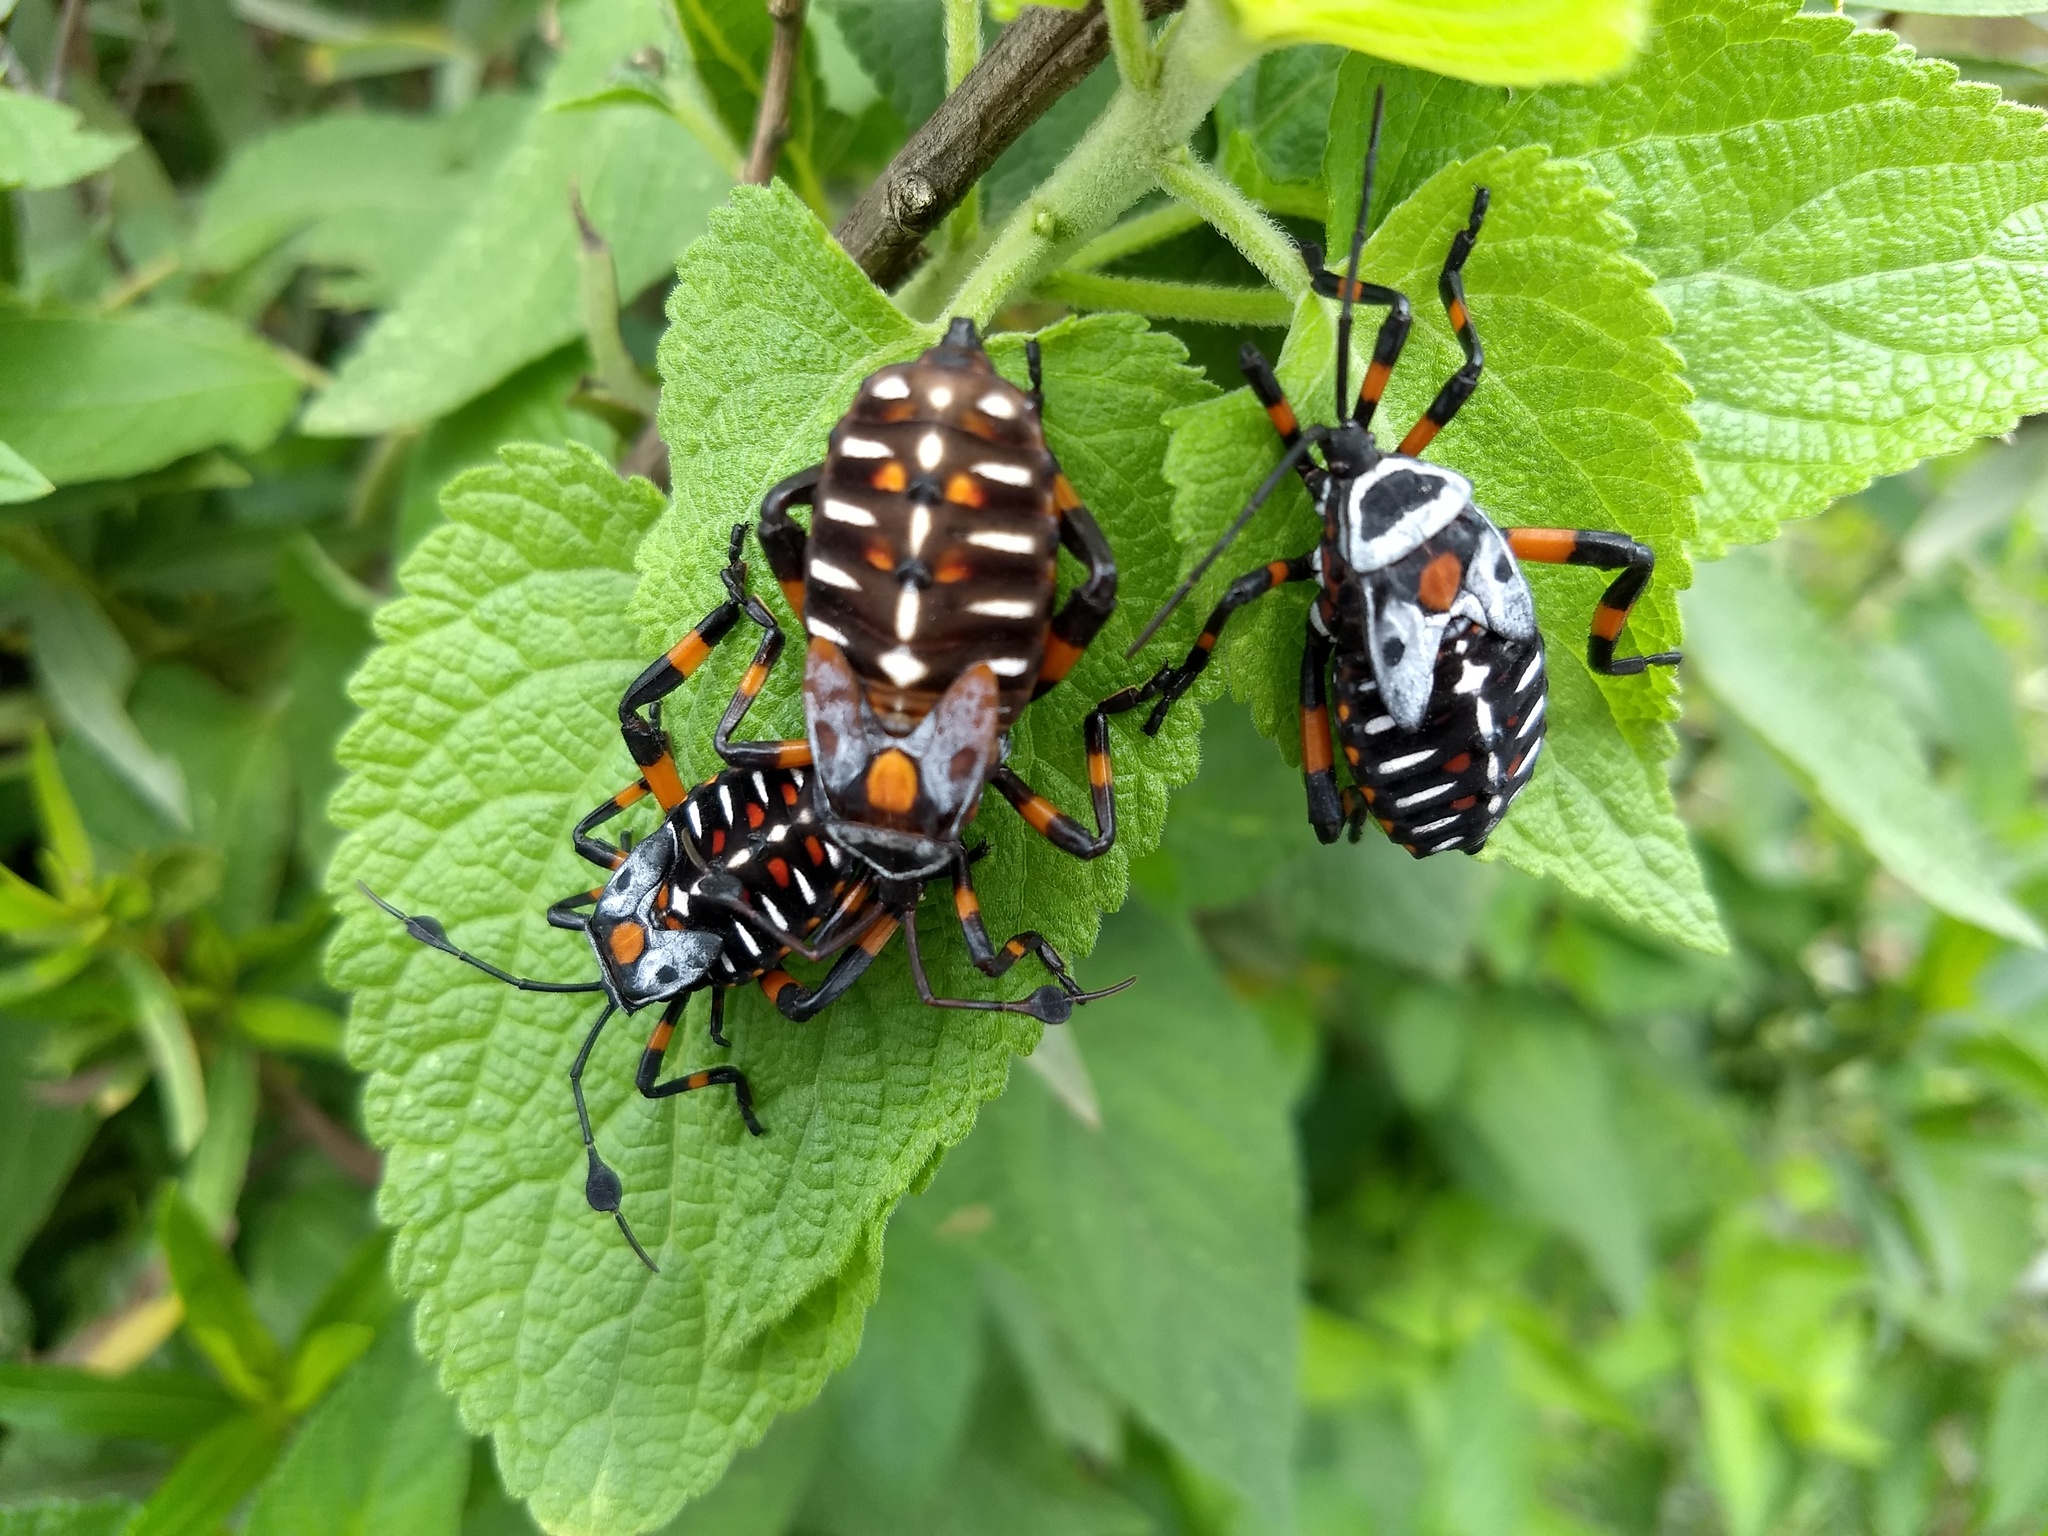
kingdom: Animalia
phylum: Arthropoda
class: Insecta
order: Hemiptera
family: Coreidae
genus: Thasus
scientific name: Thasus
